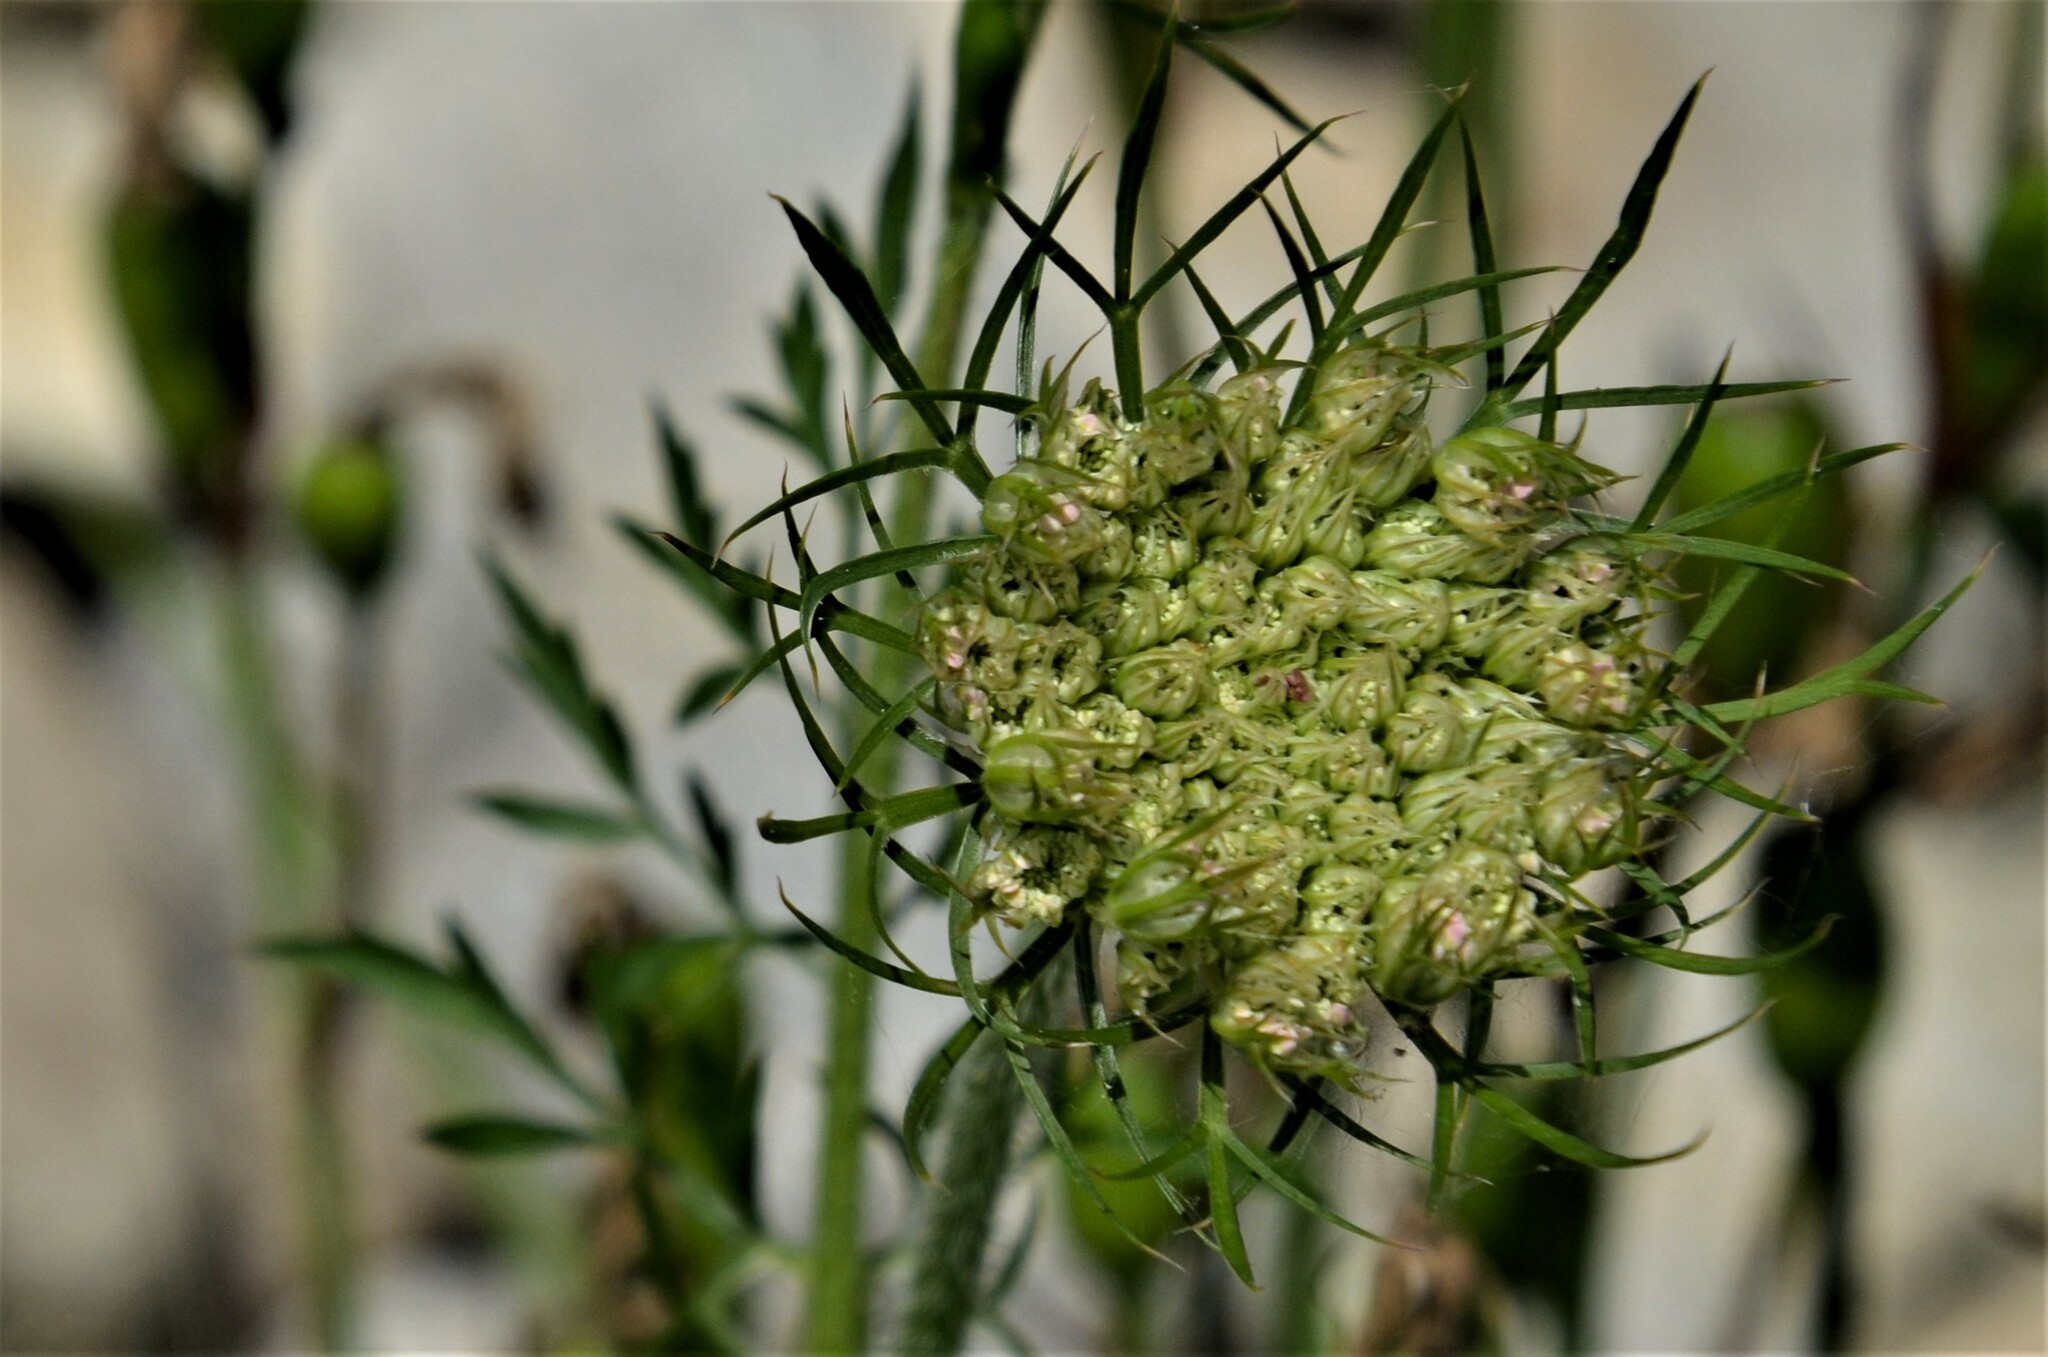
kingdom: Plantae
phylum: Tracheophyta
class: Magnoliopsida
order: Apiales
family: Apiaceae
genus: Daucus
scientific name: Daucus carota
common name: Wild carrot
